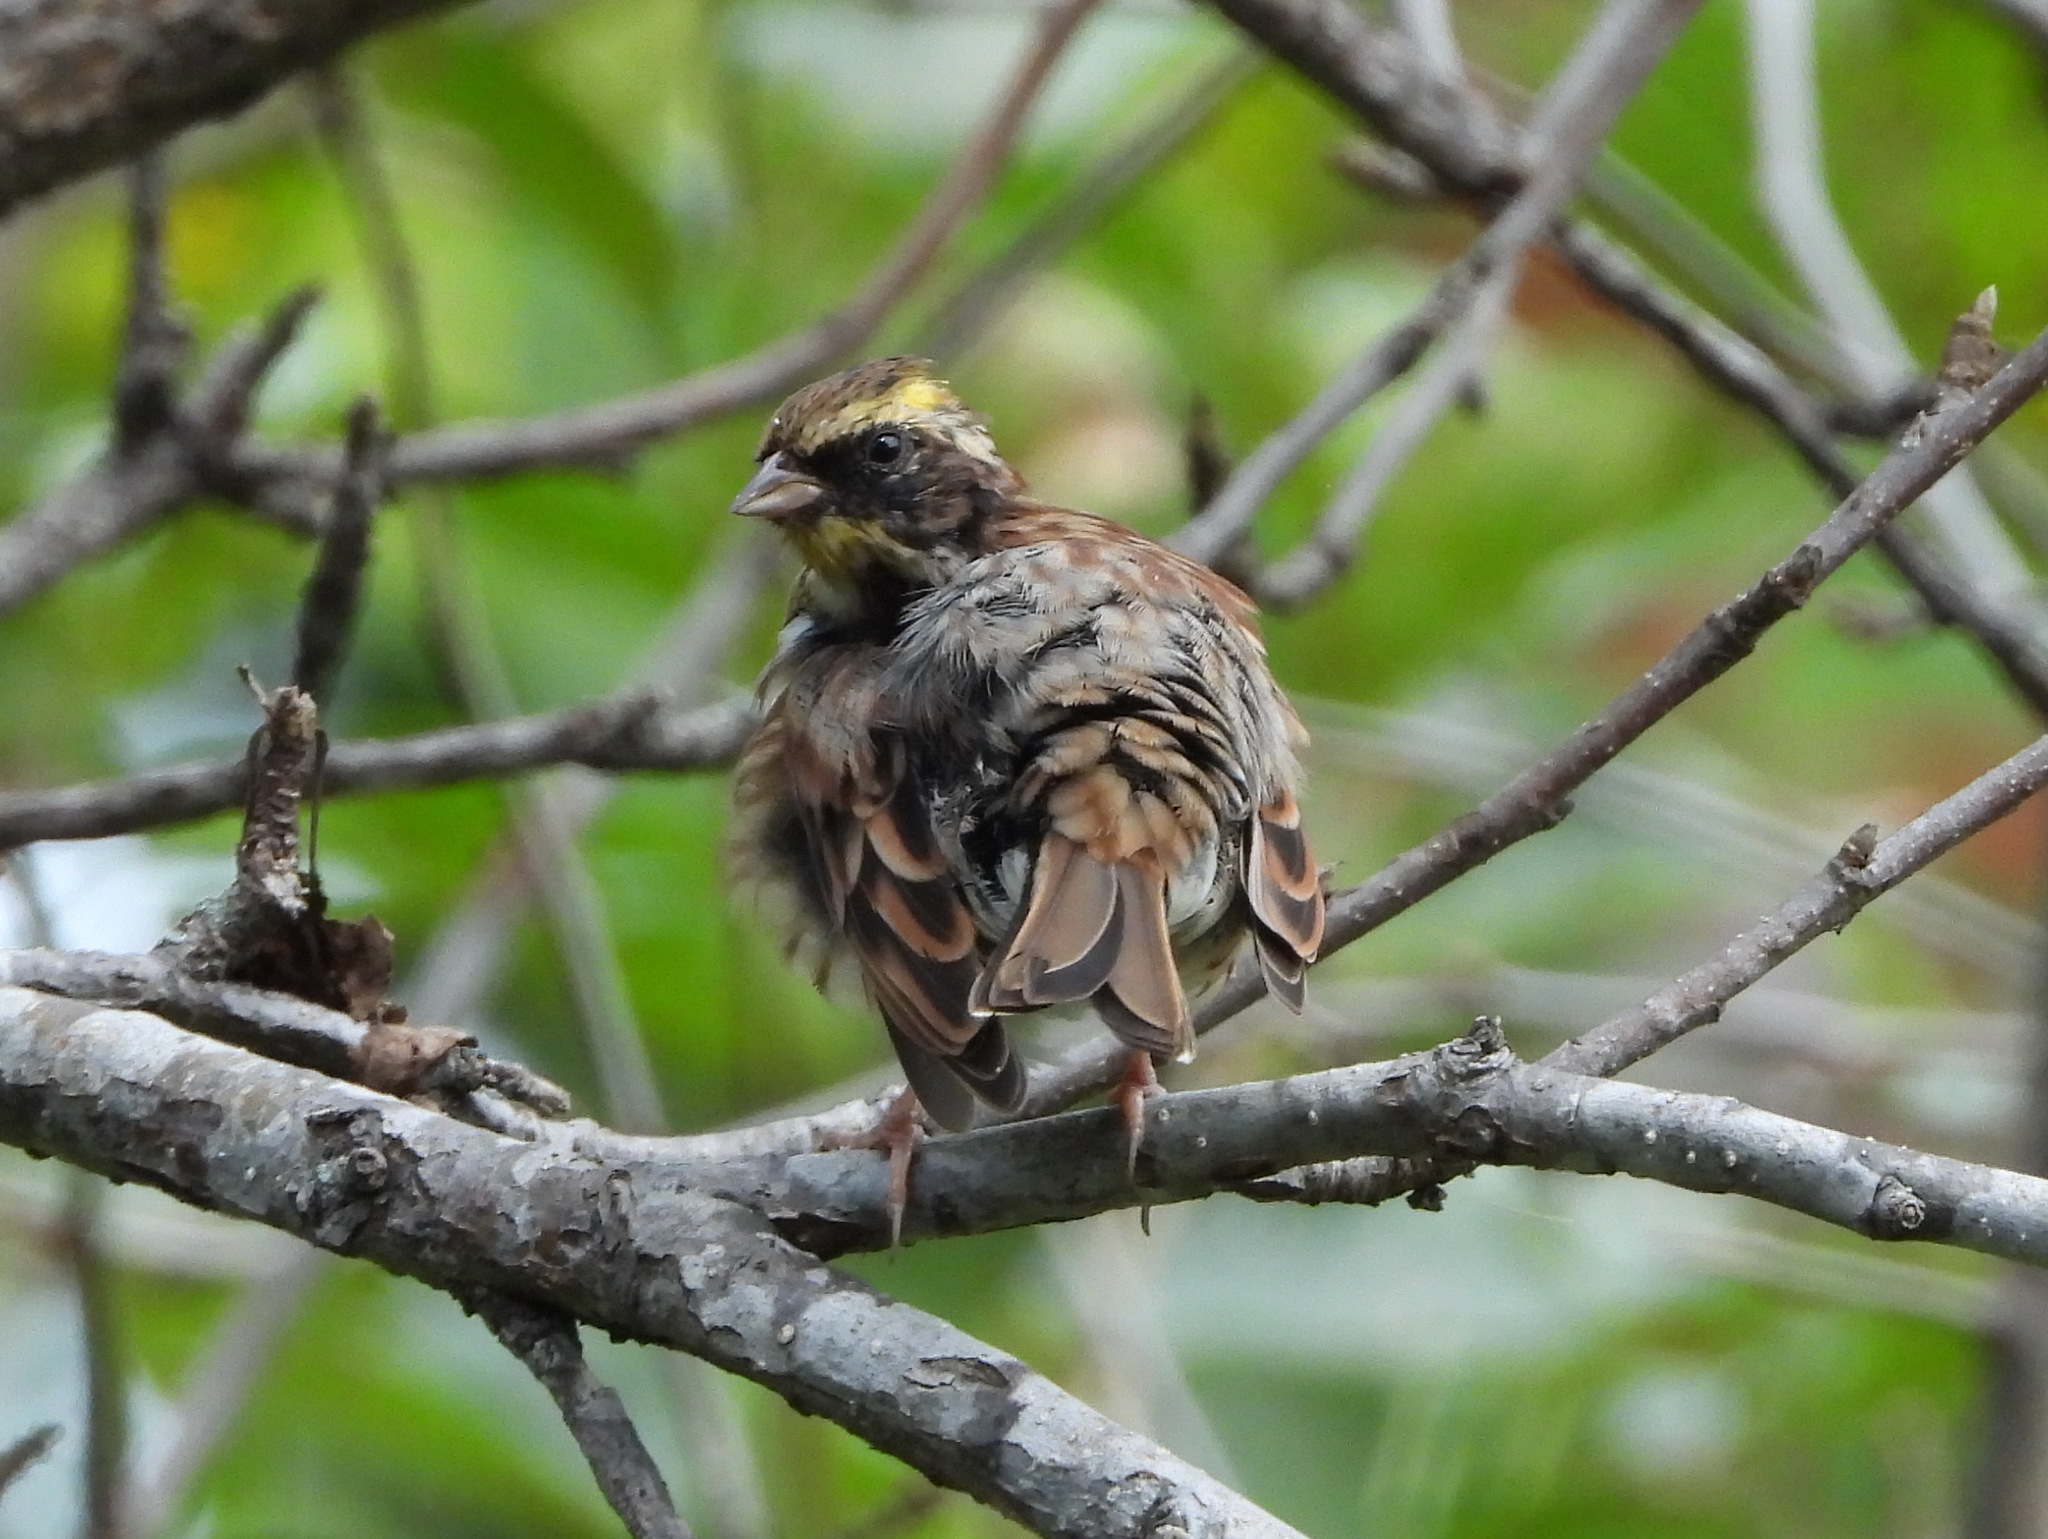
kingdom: Animalia
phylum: Chordata
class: Aves
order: Passeriformes
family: Emberizidae
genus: Emberiza
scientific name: Emberiza elegans
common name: Yellow-throated bunting
